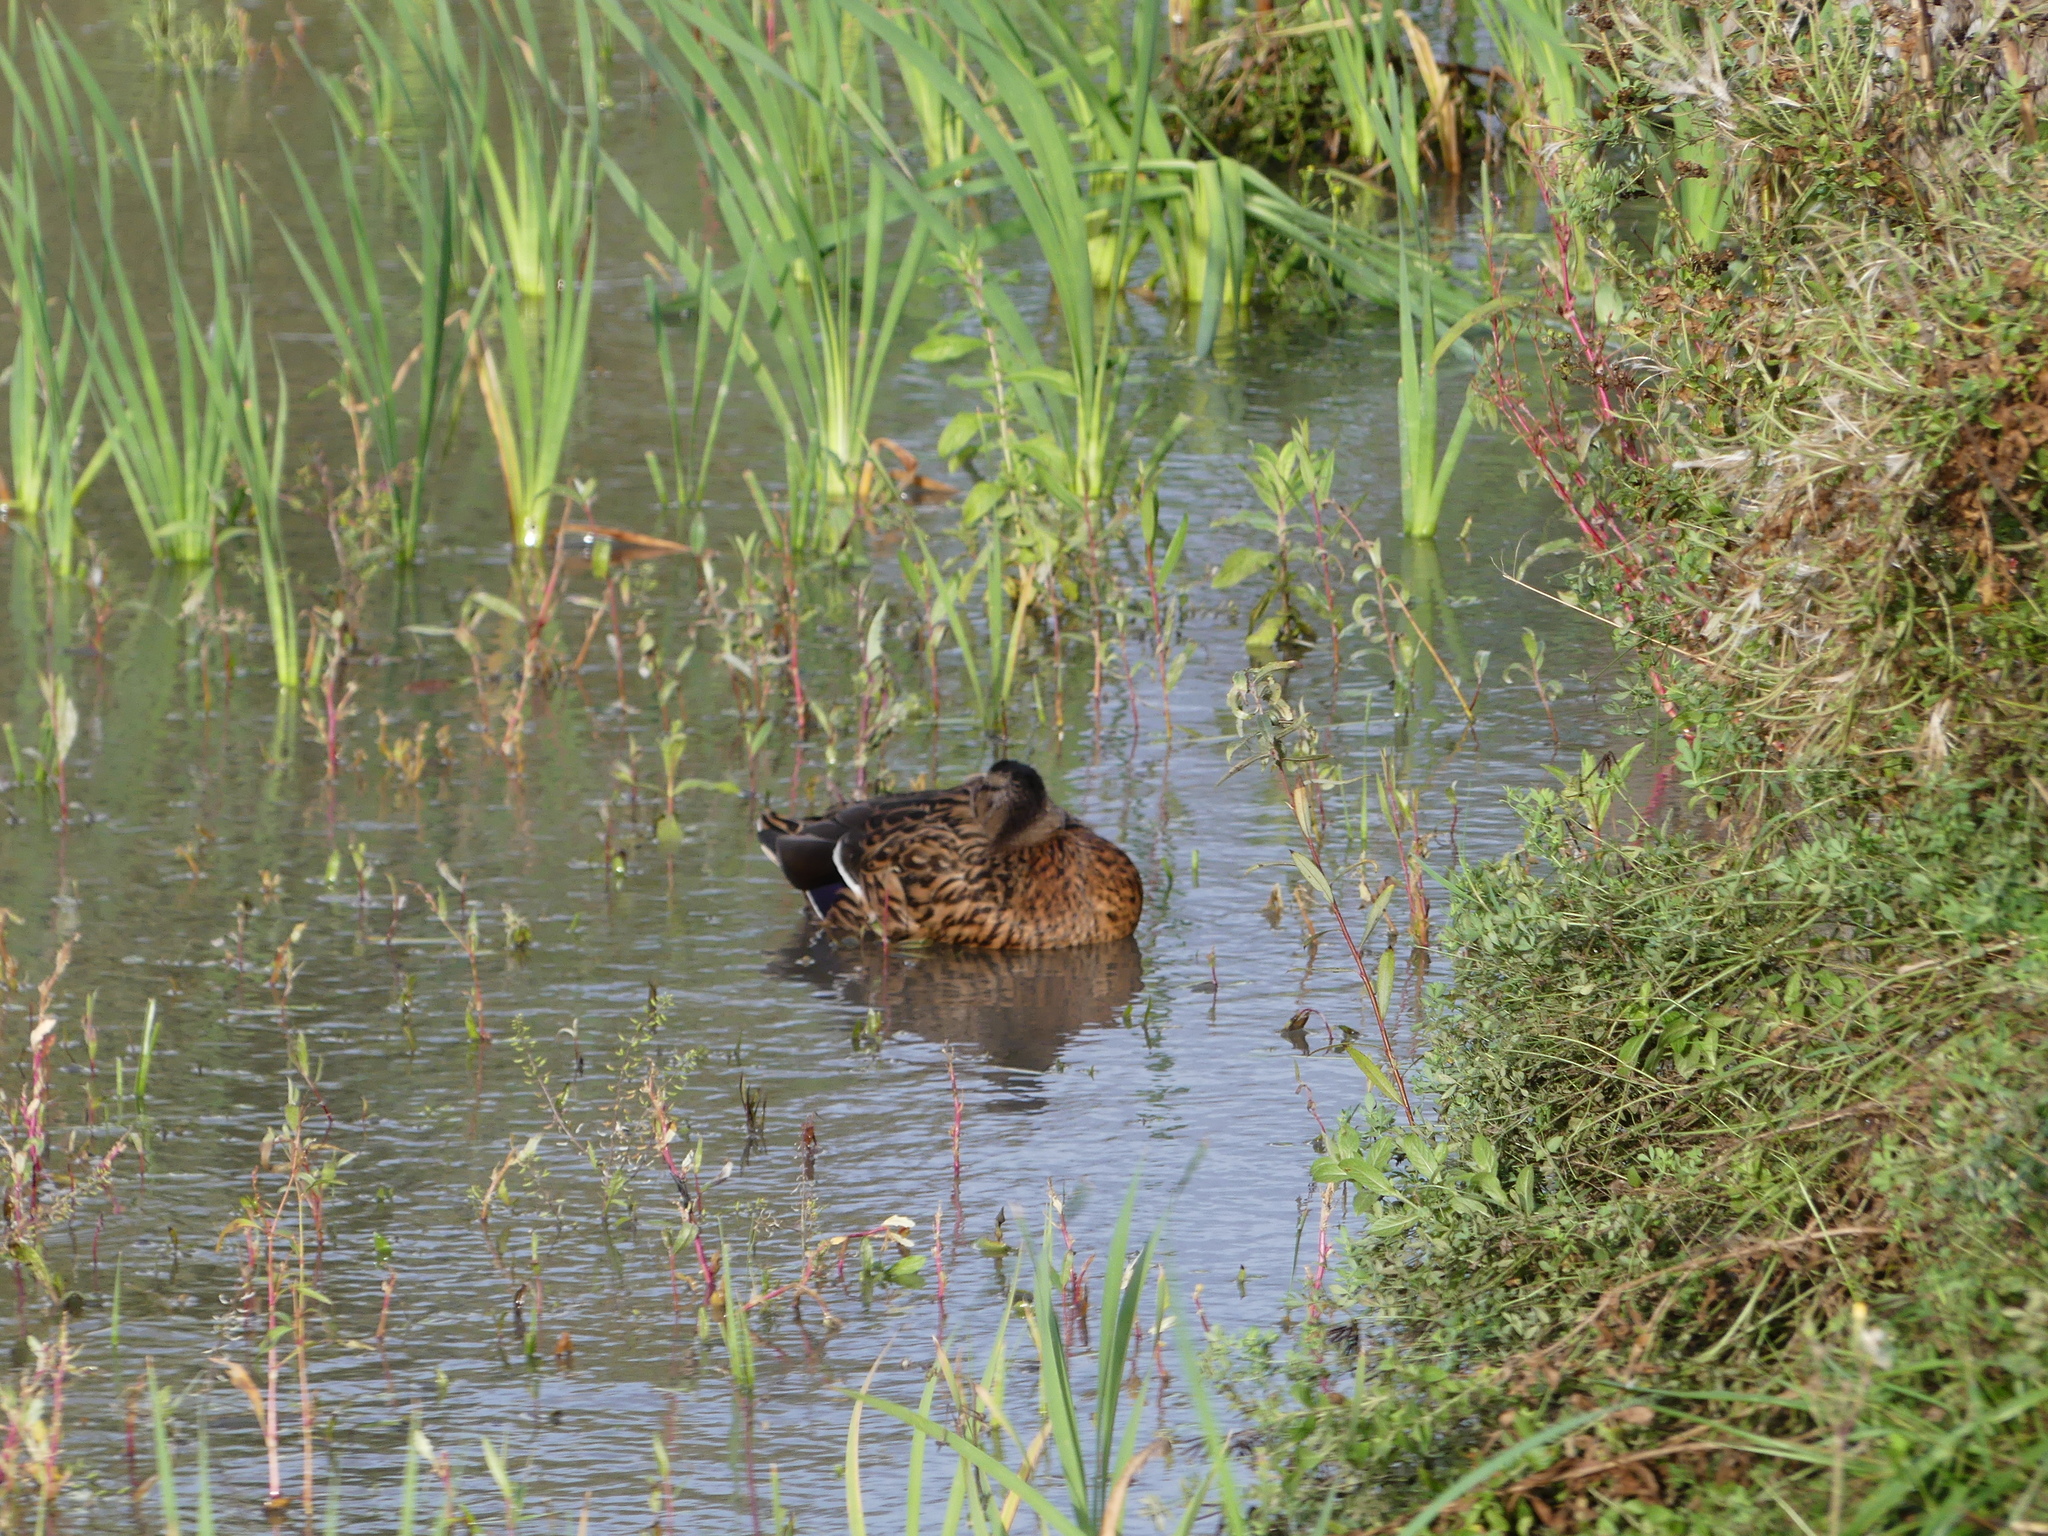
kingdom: Animalia
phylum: Chordata
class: Aves
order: Anseriformes
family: Anatidae
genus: Anas
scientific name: Anas platyrhynchos
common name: Mallard
